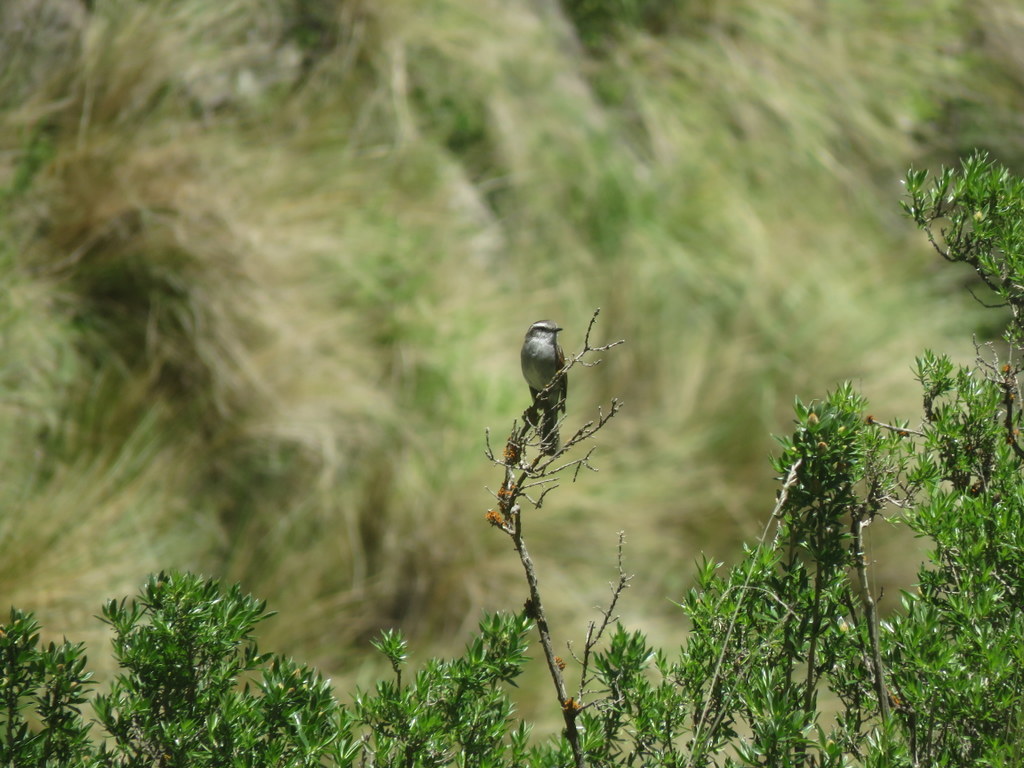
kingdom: Animalia
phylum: Chordata
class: Aves
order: Passeriformes
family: Tyrannidae
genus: Ochthoeca
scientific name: Ochthoeca leucophrys
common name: White-browed chat-tyrant
